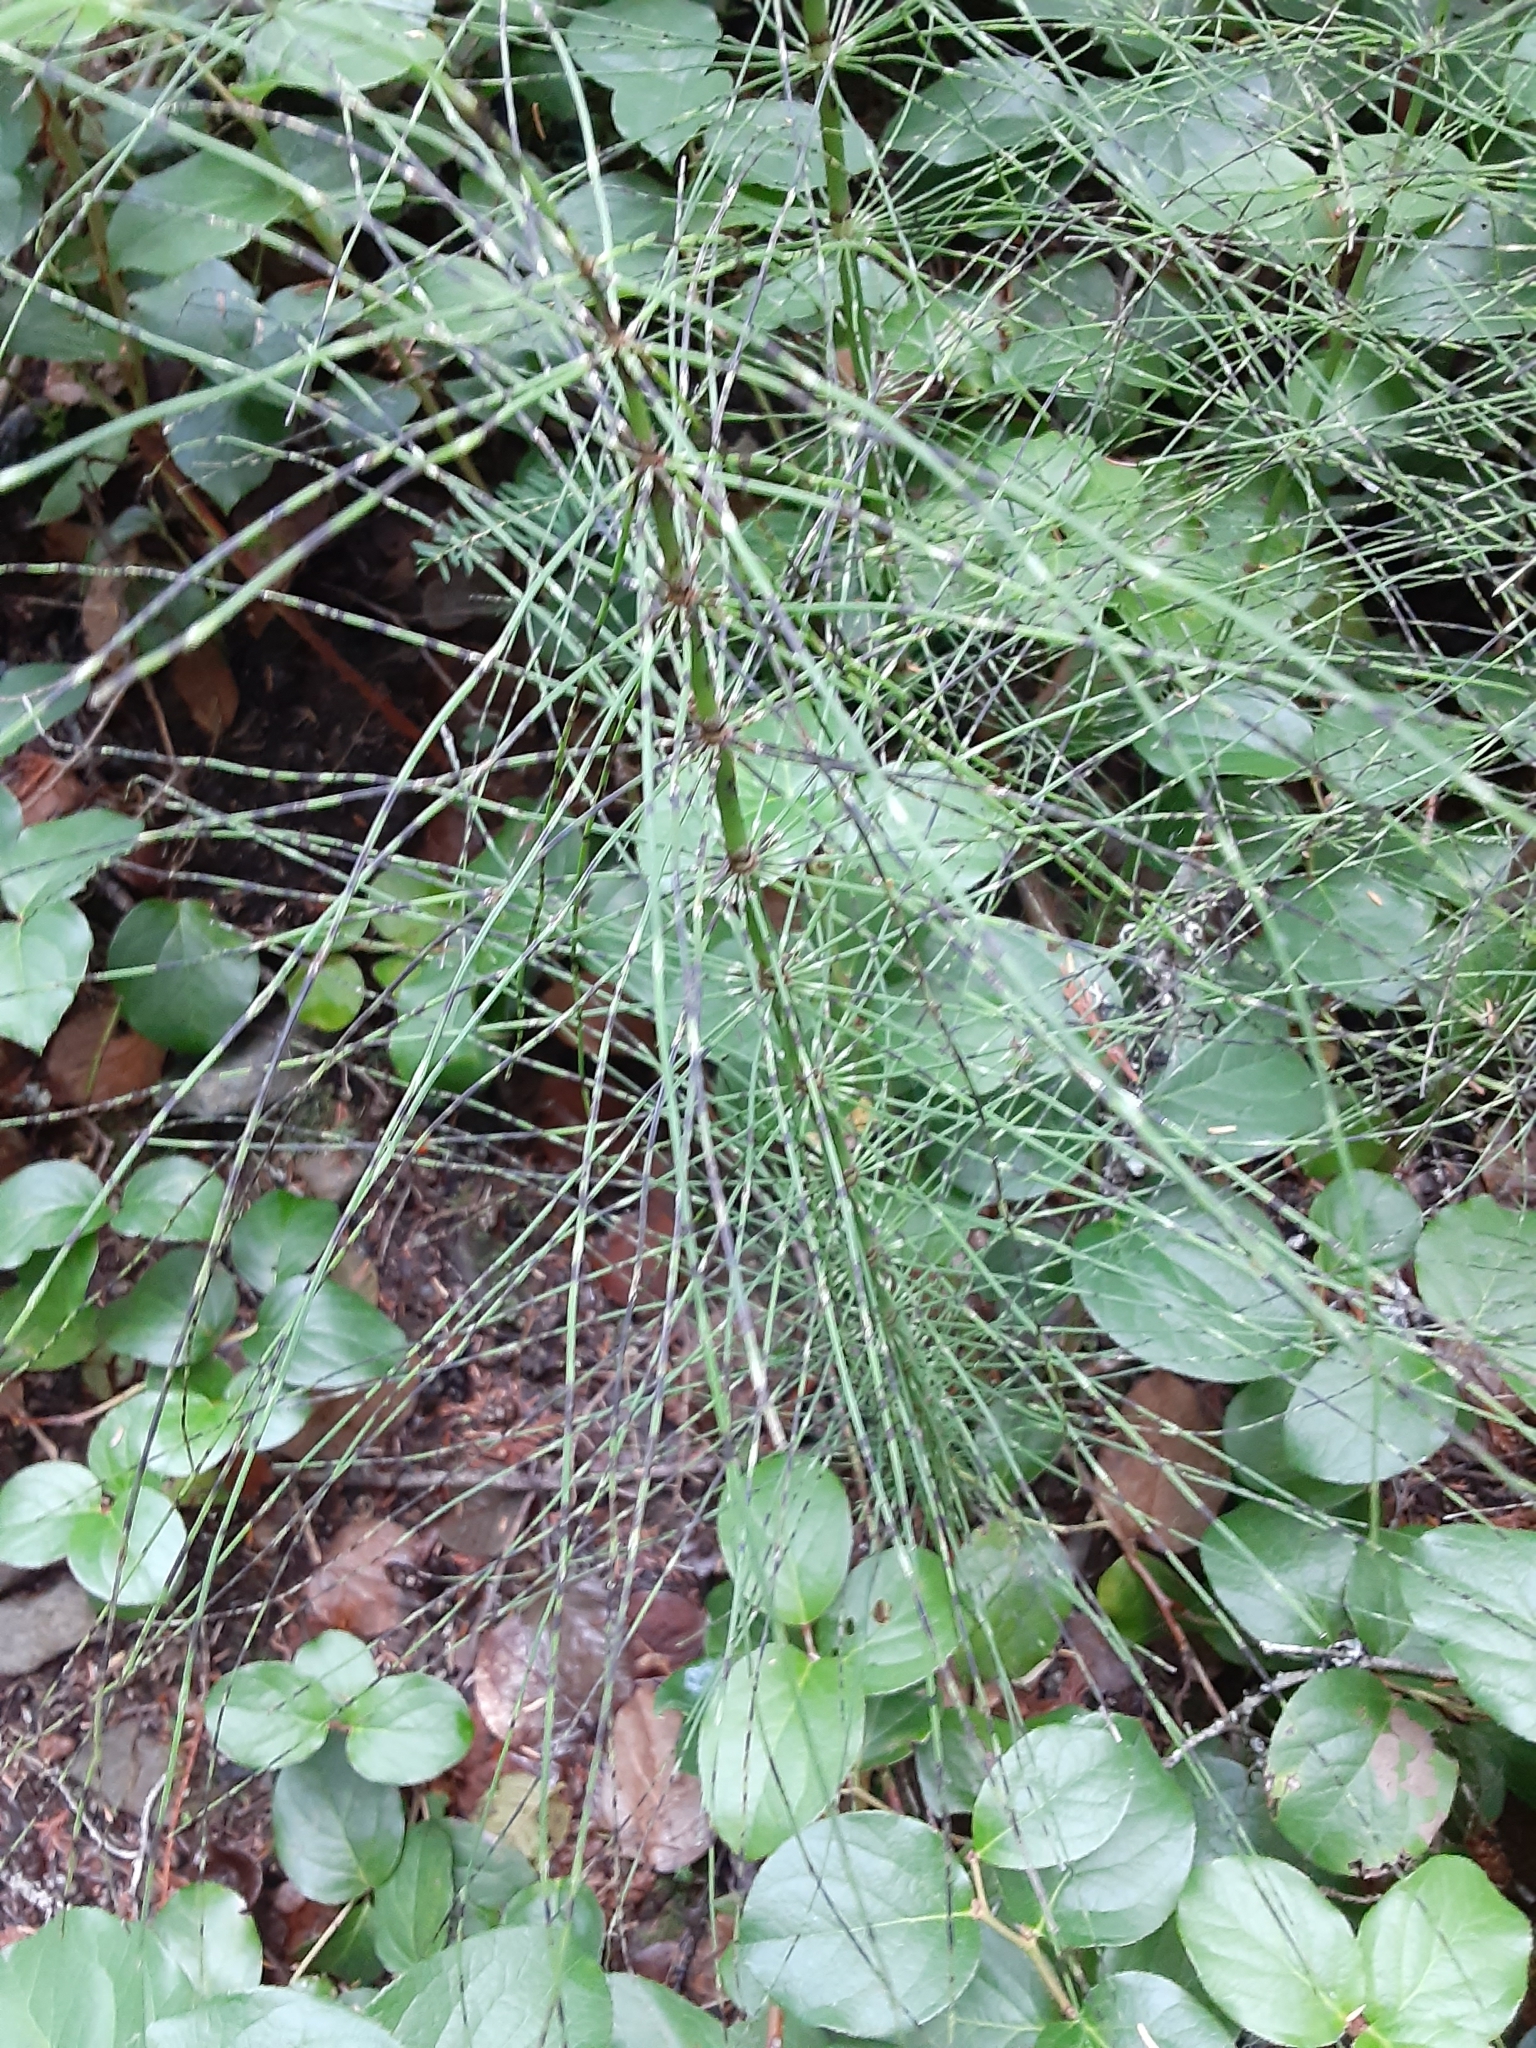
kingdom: Plantae
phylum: Tracheophyta
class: Polypodiopsida
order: Equisetales
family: Equisetaceae
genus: Equisetum
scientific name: Equisetum telmateia
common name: Great horsetail
